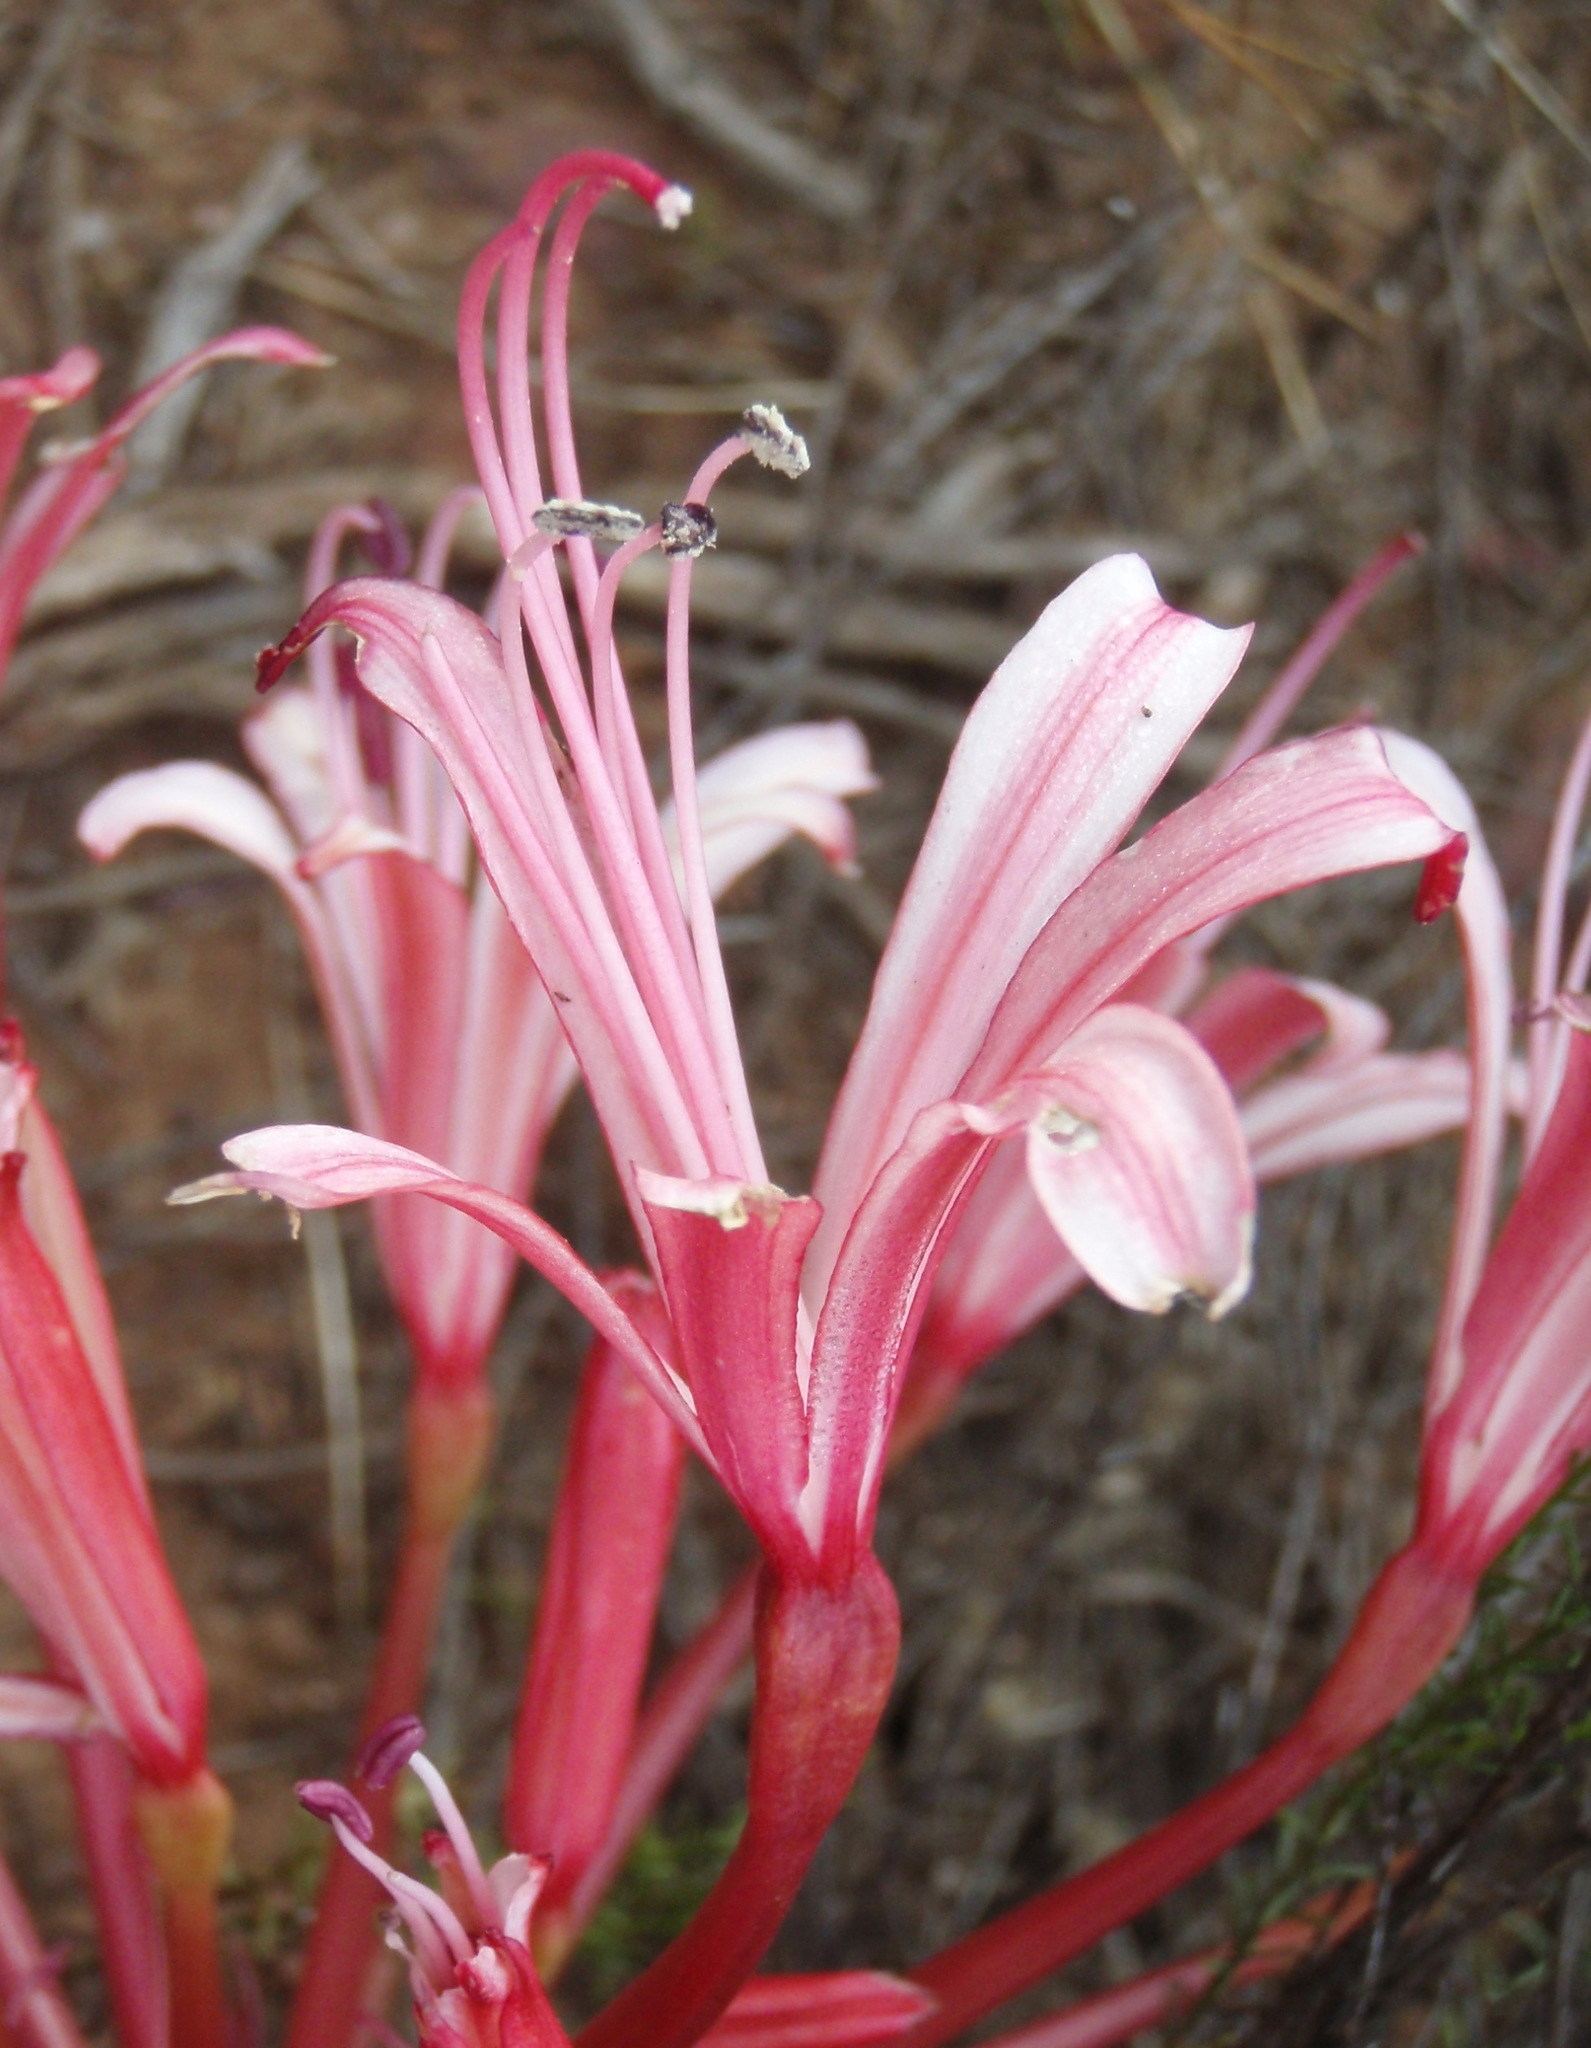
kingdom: Plantae
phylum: Tracheophyta
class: Liliopsida
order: Asparagales
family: Amaryllidaceae
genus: Brunsvigia
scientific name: Brunsvigia nervosa
